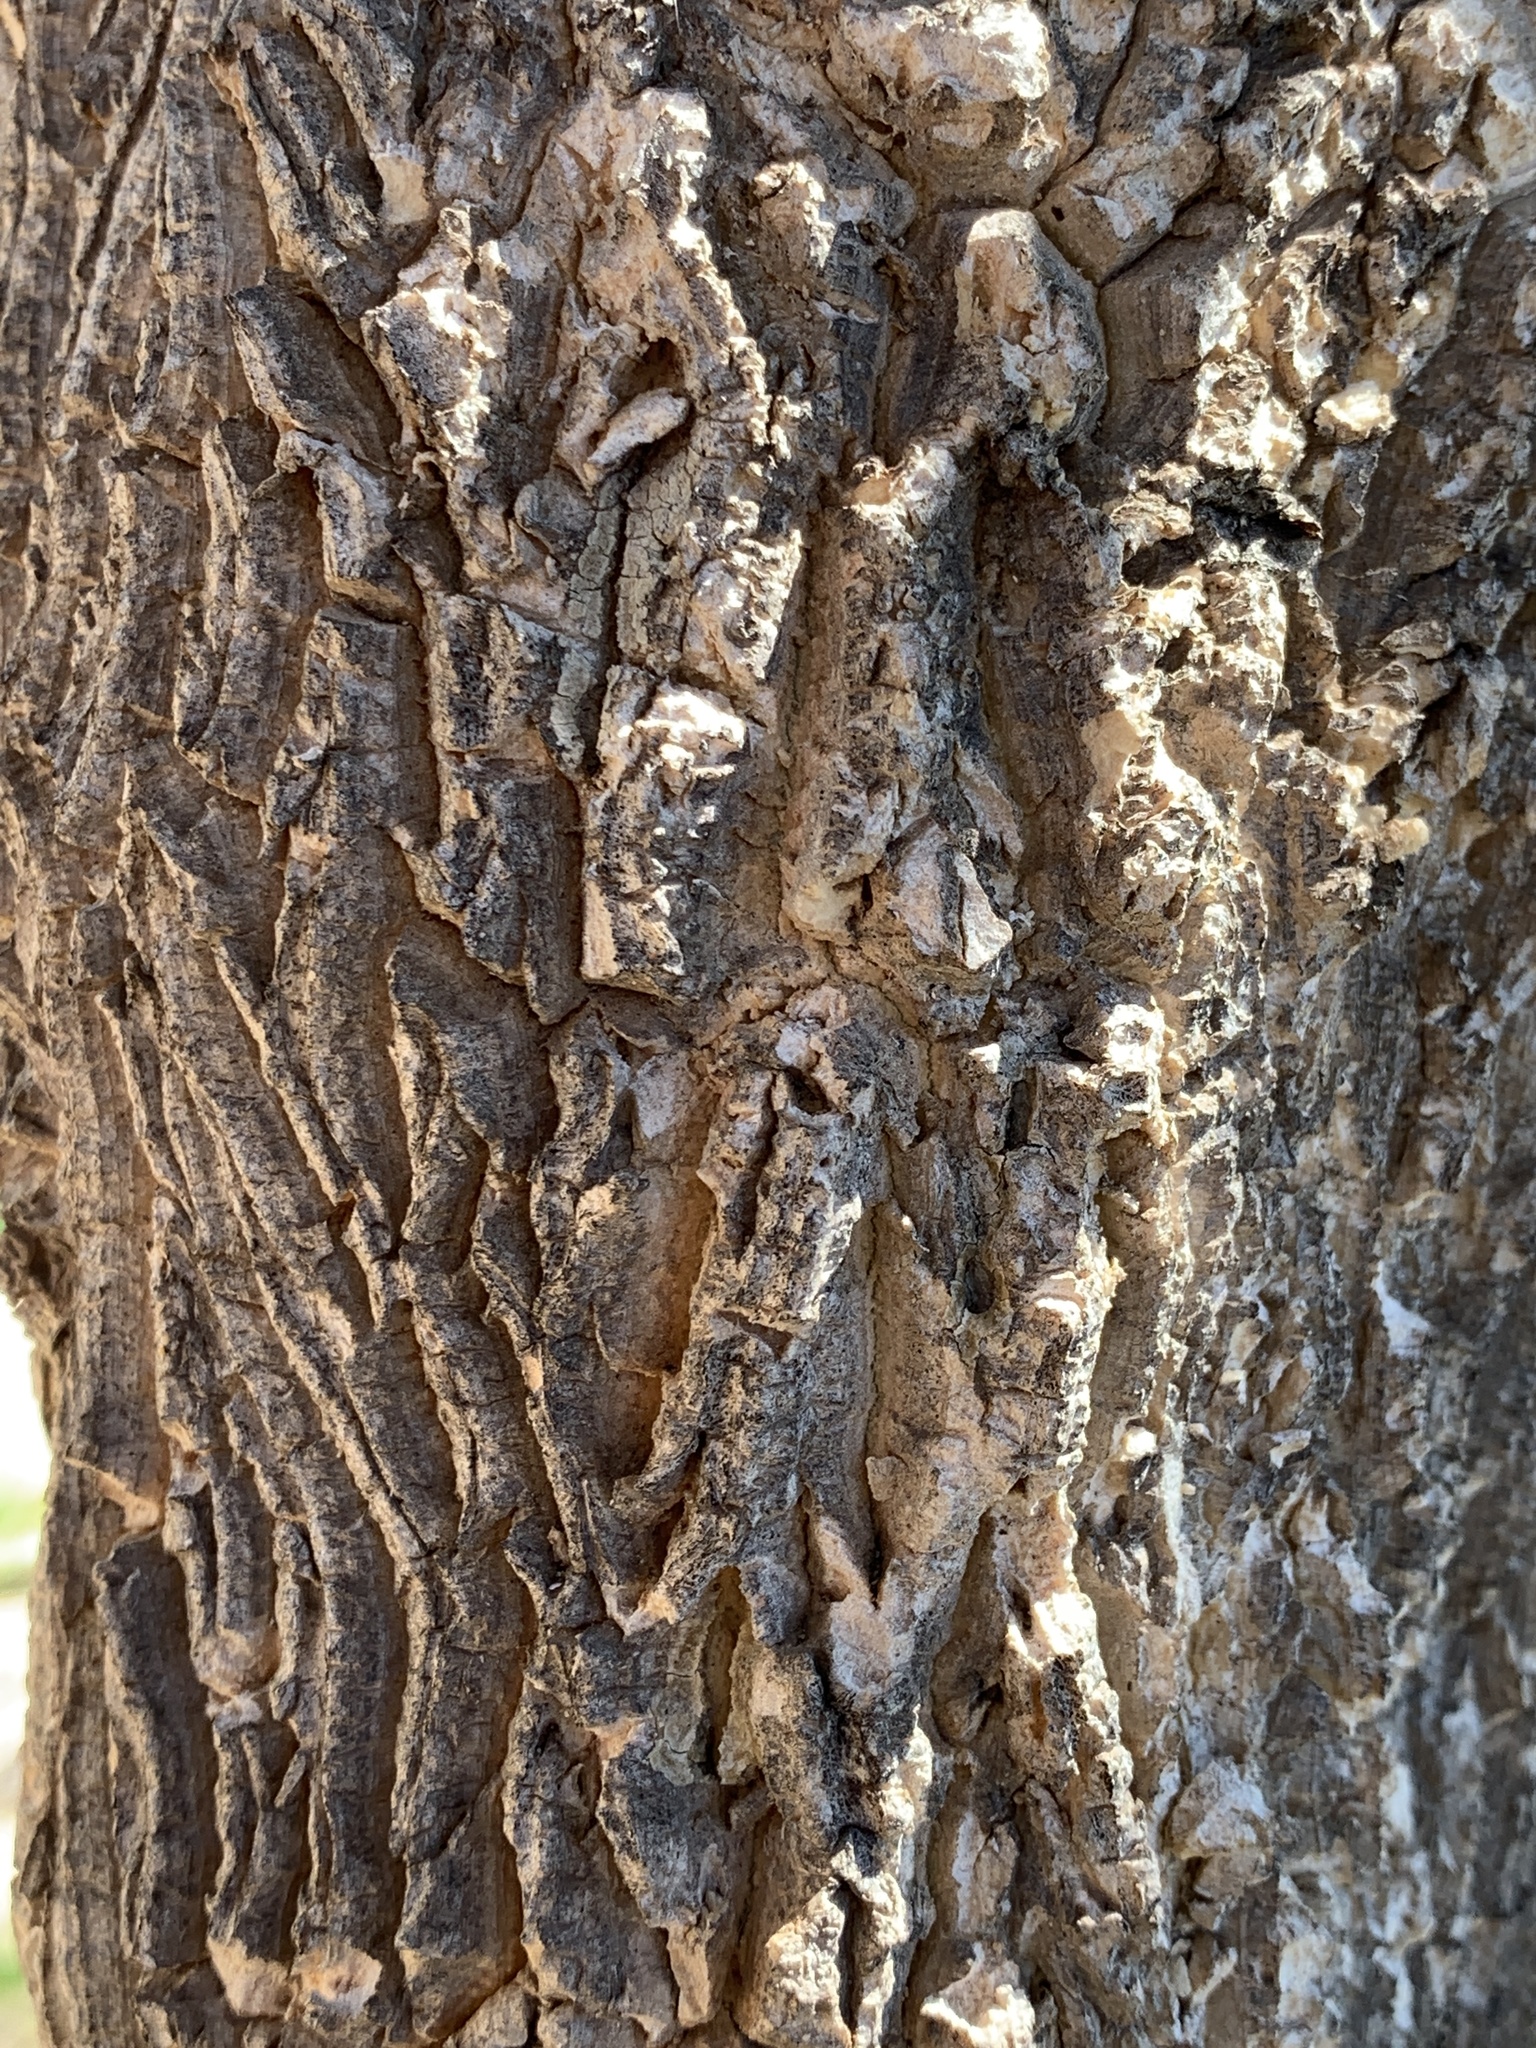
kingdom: Plantae
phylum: Tracheophyta
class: Magnoliopsida
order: Gentianales
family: Apocynaceae
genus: Calotropis
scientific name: Calotropis procera
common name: Roostertree
